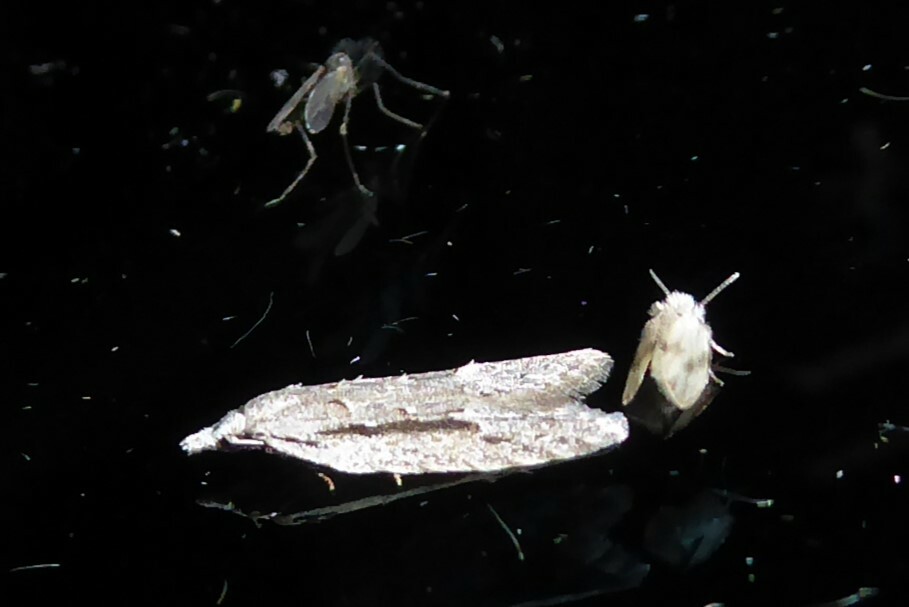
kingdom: Animalia
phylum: Arthropoda
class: Insecta
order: Lepidoptera
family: Carposinidae
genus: Carposina
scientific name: Carposina
